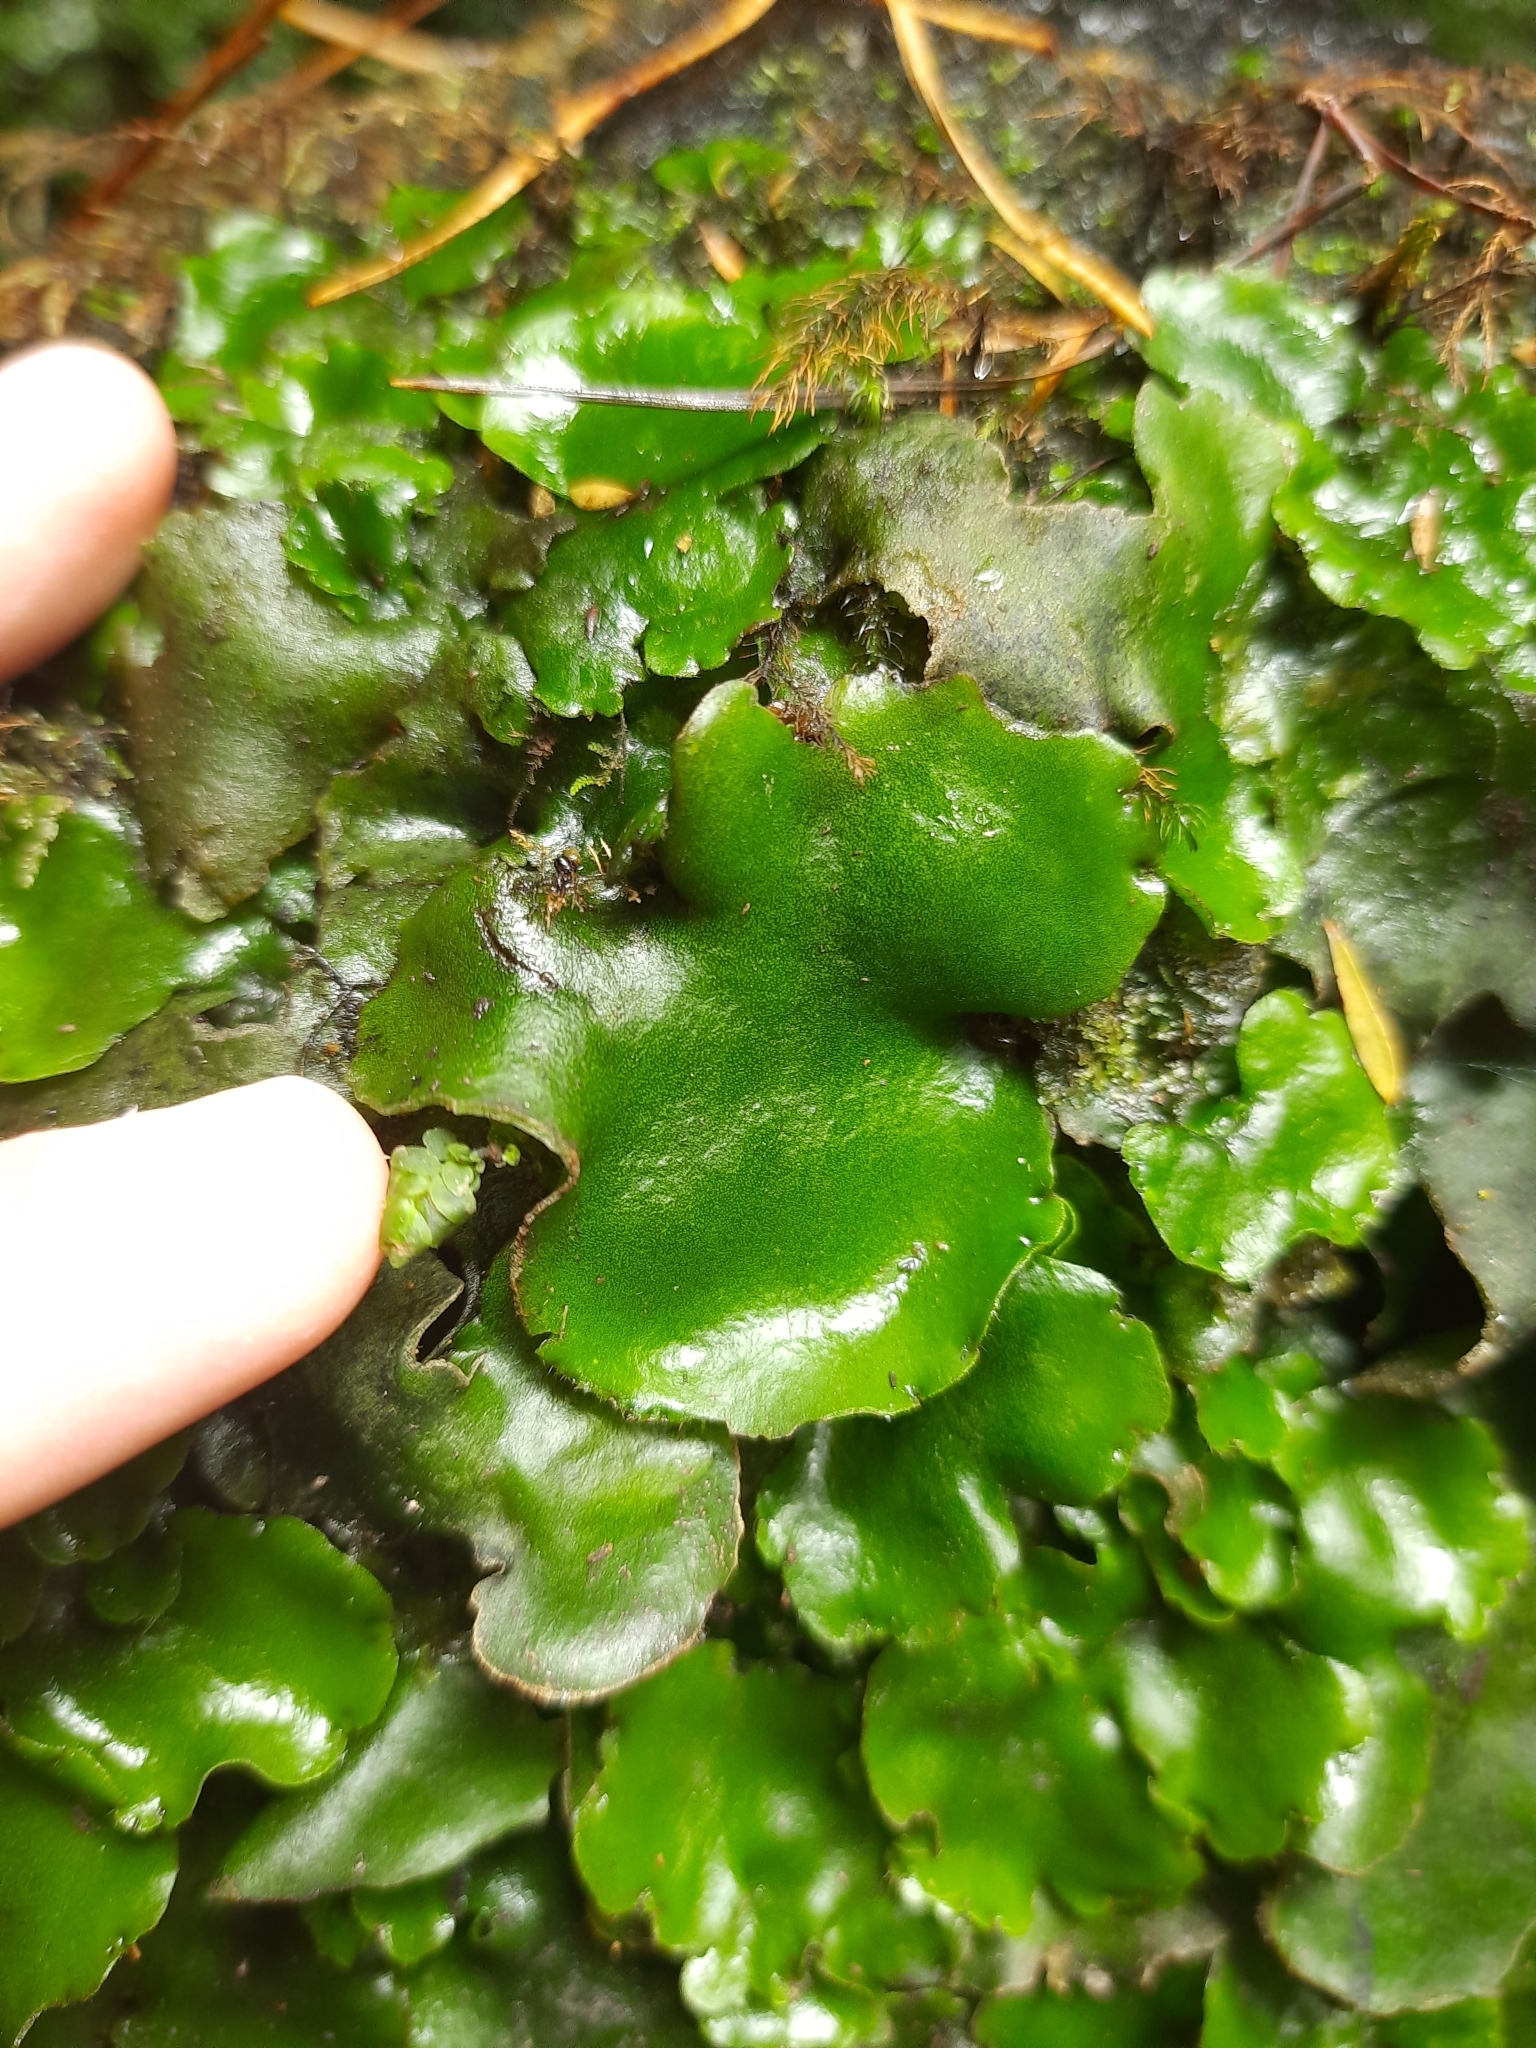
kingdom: Plantae
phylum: Marchantiophyta
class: Marchantiopsida
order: Marchantiales
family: Monocleaceae
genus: Monoclea
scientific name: Monoclea forsteri
